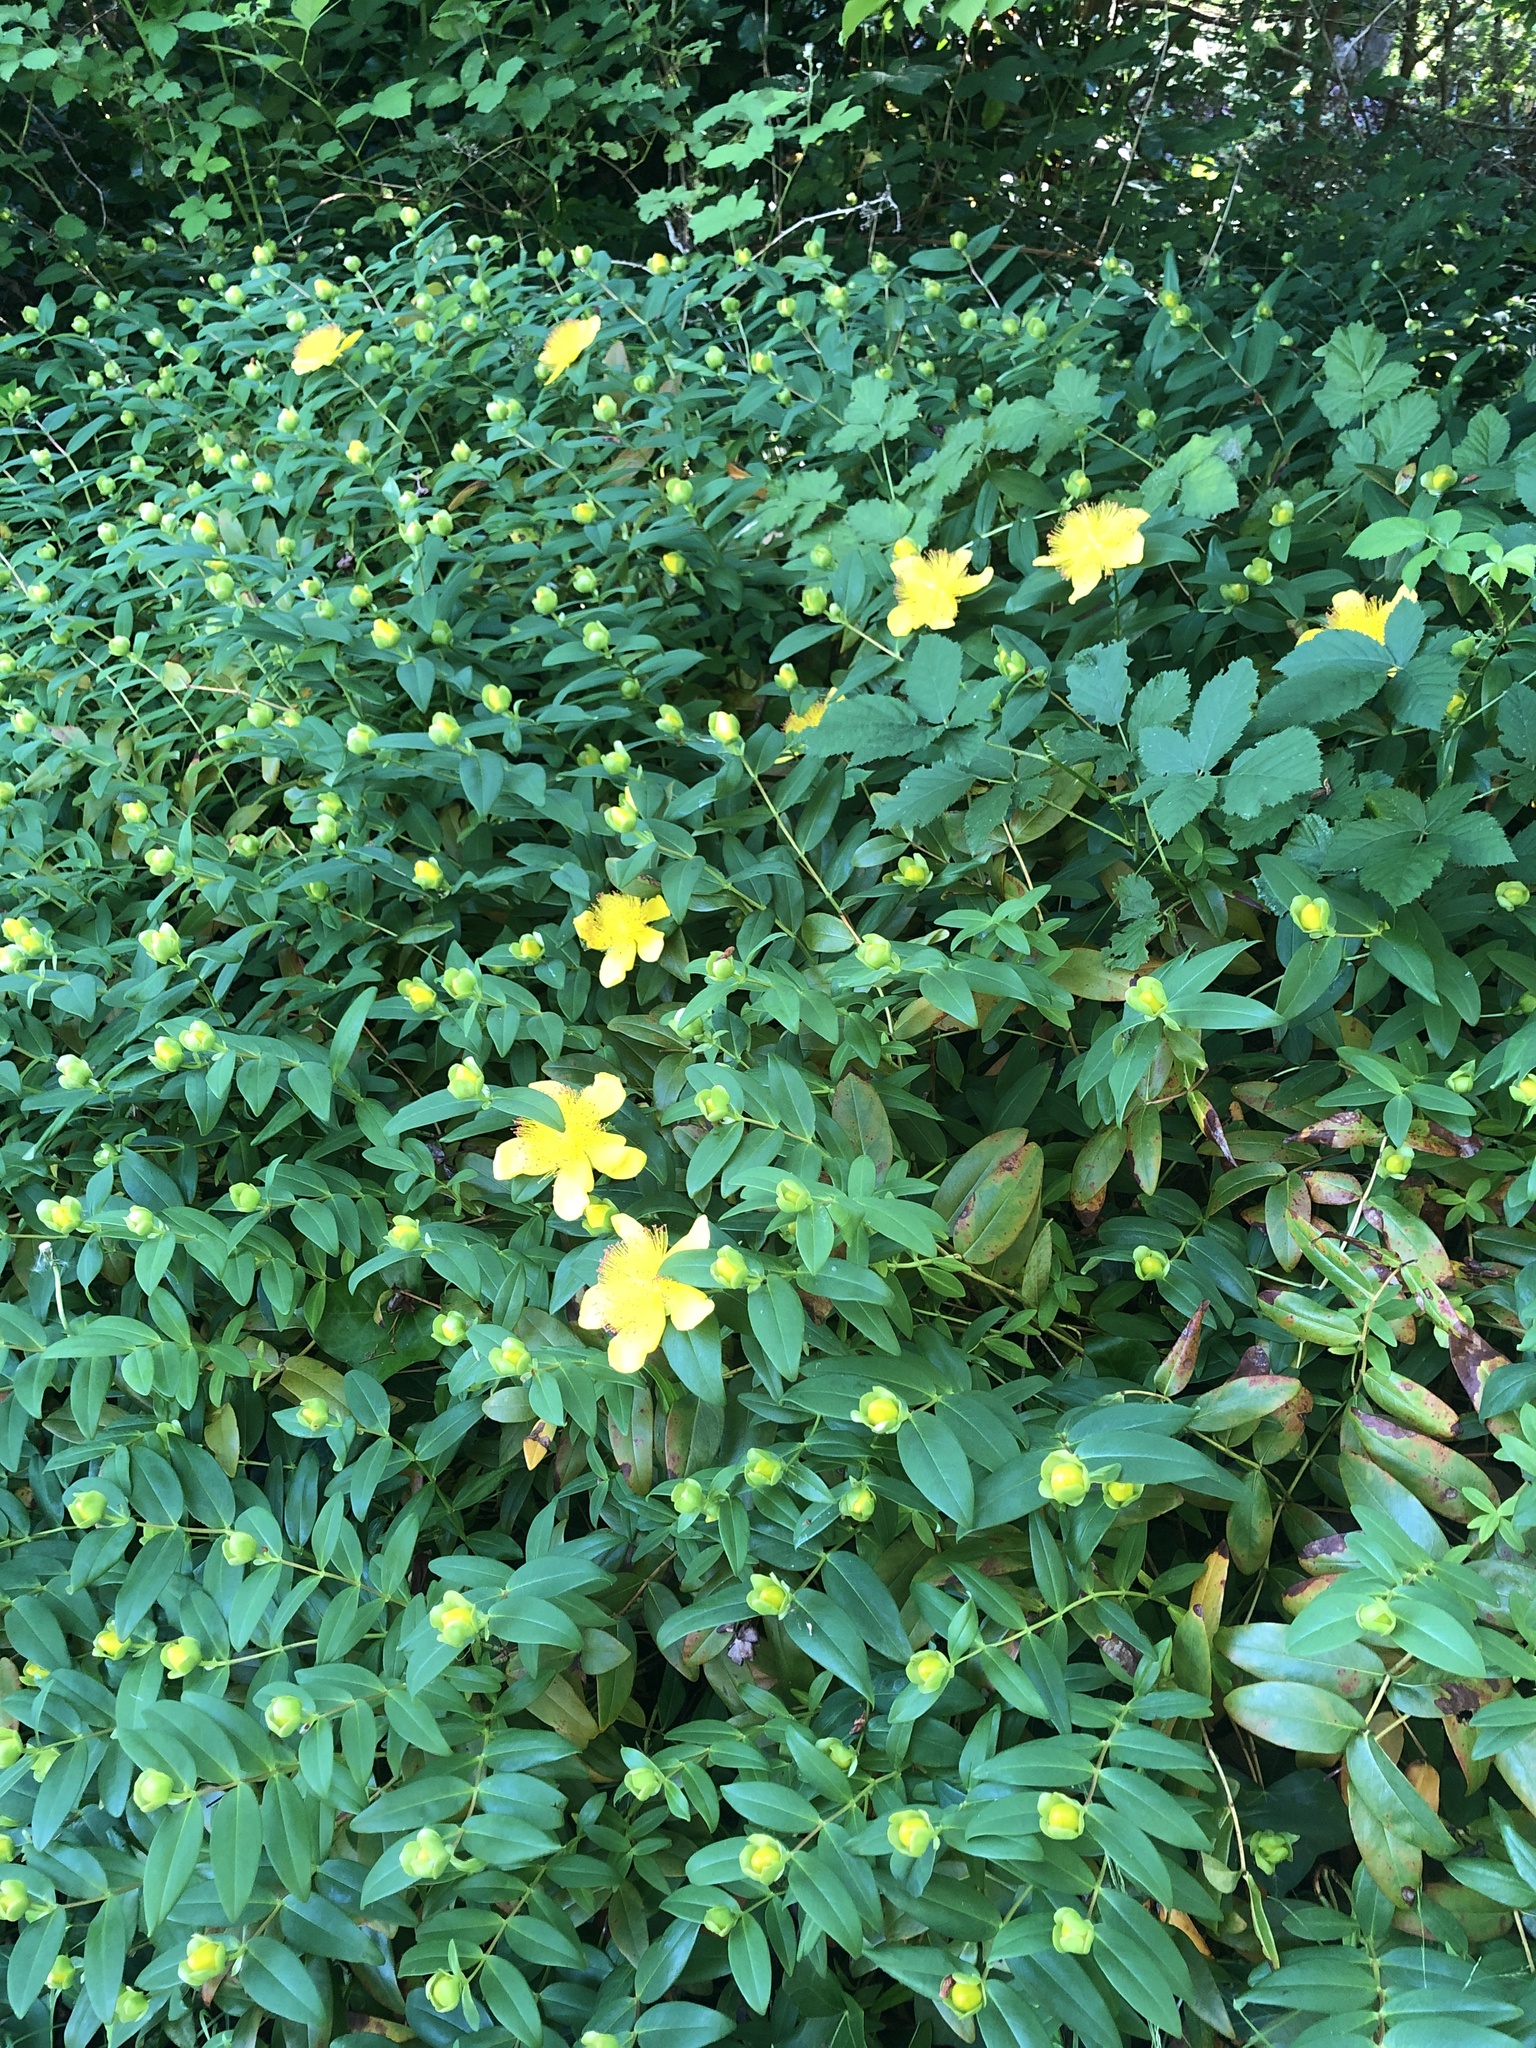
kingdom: Plantae
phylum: Tracheophyta
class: Magnoliopsida
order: Malpighiales
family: Hypericaceae
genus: Hypericum
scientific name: Hypericum calycinum
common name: Rose-of-sharon
